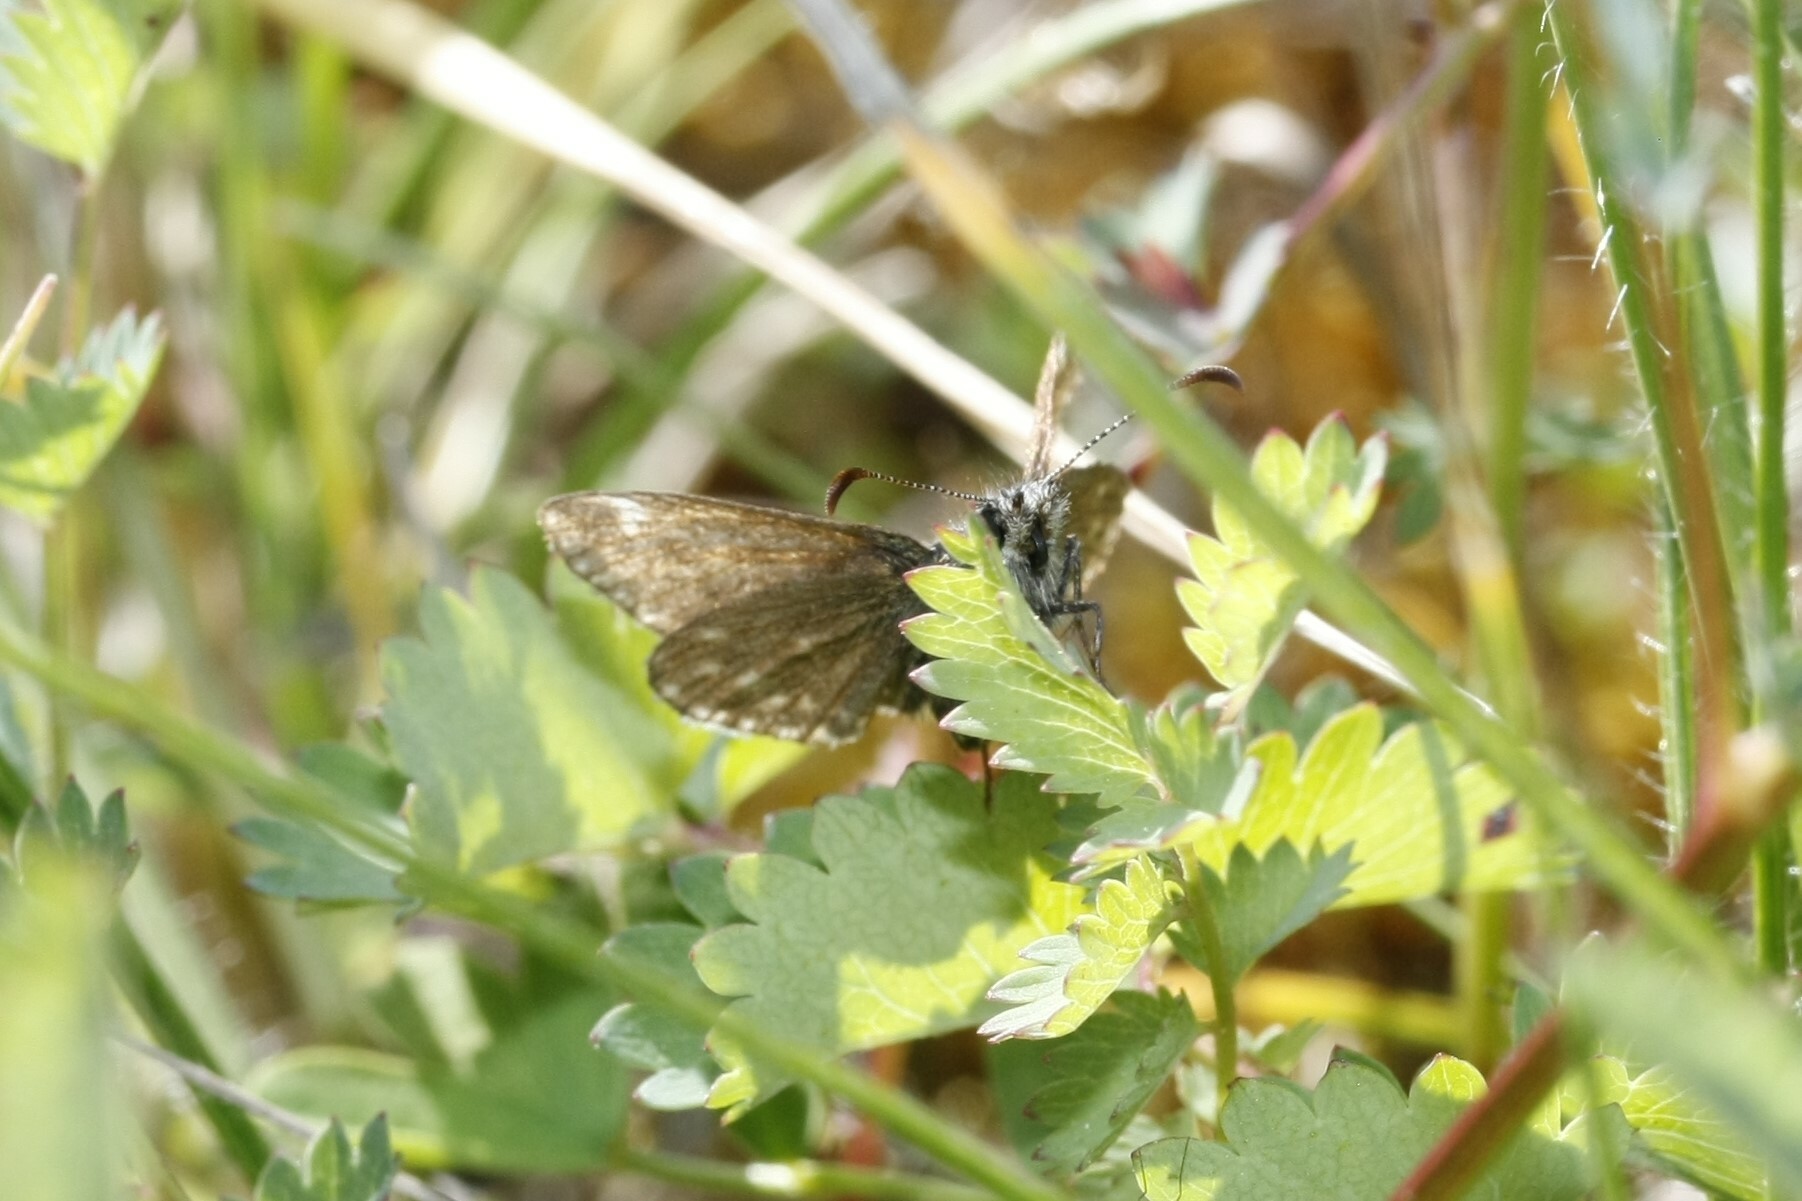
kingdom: Animalia
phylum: Arthropoda
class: Insecta
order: Lepidoptera
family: Hesperiidae
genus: Erynnis
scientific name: Erynnis tages
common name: Dingy skipper
